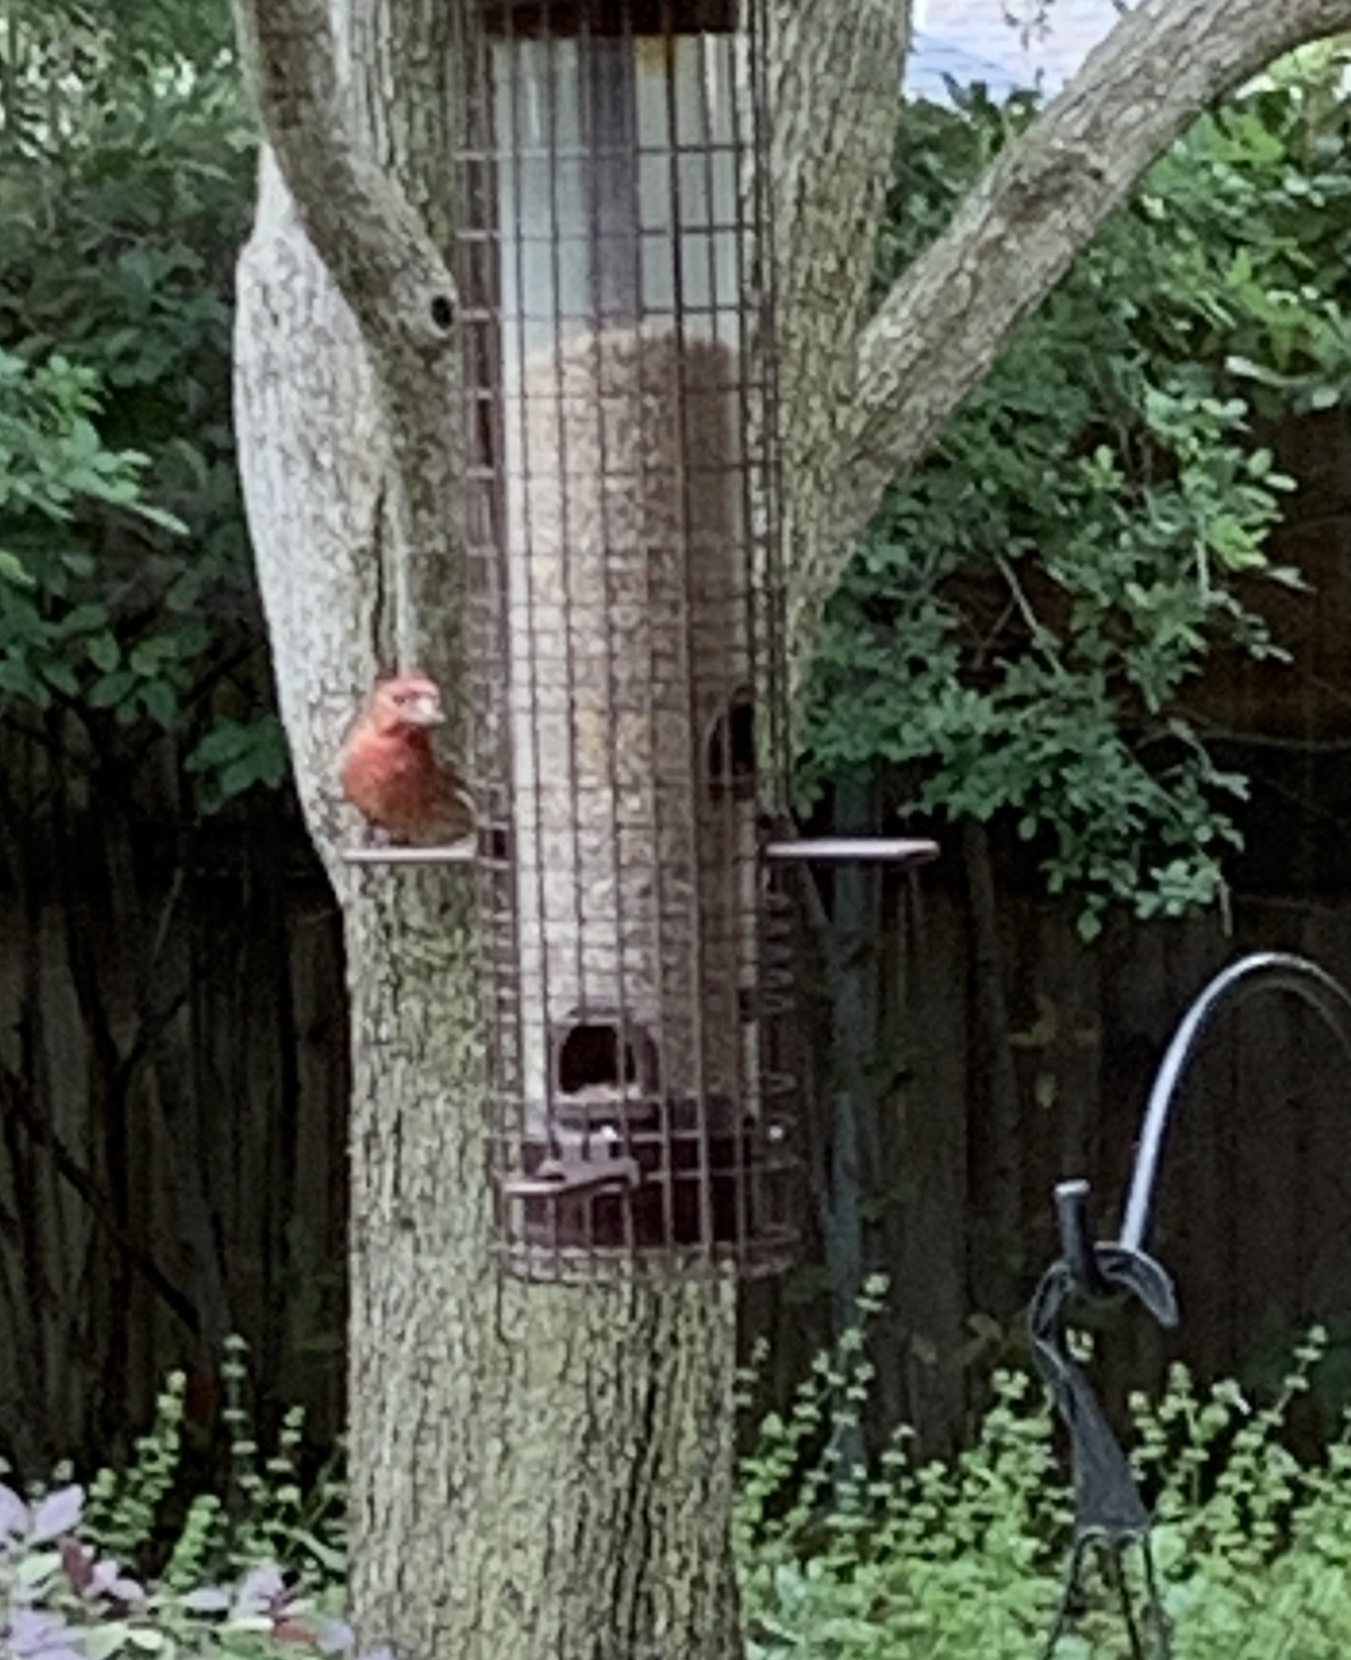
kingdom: Animalia
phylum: Chordata
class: Aves
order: Passeriformes
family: Fringillidae
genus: Haemorhous
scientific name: Haemorhous mexicanus
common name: House finch
